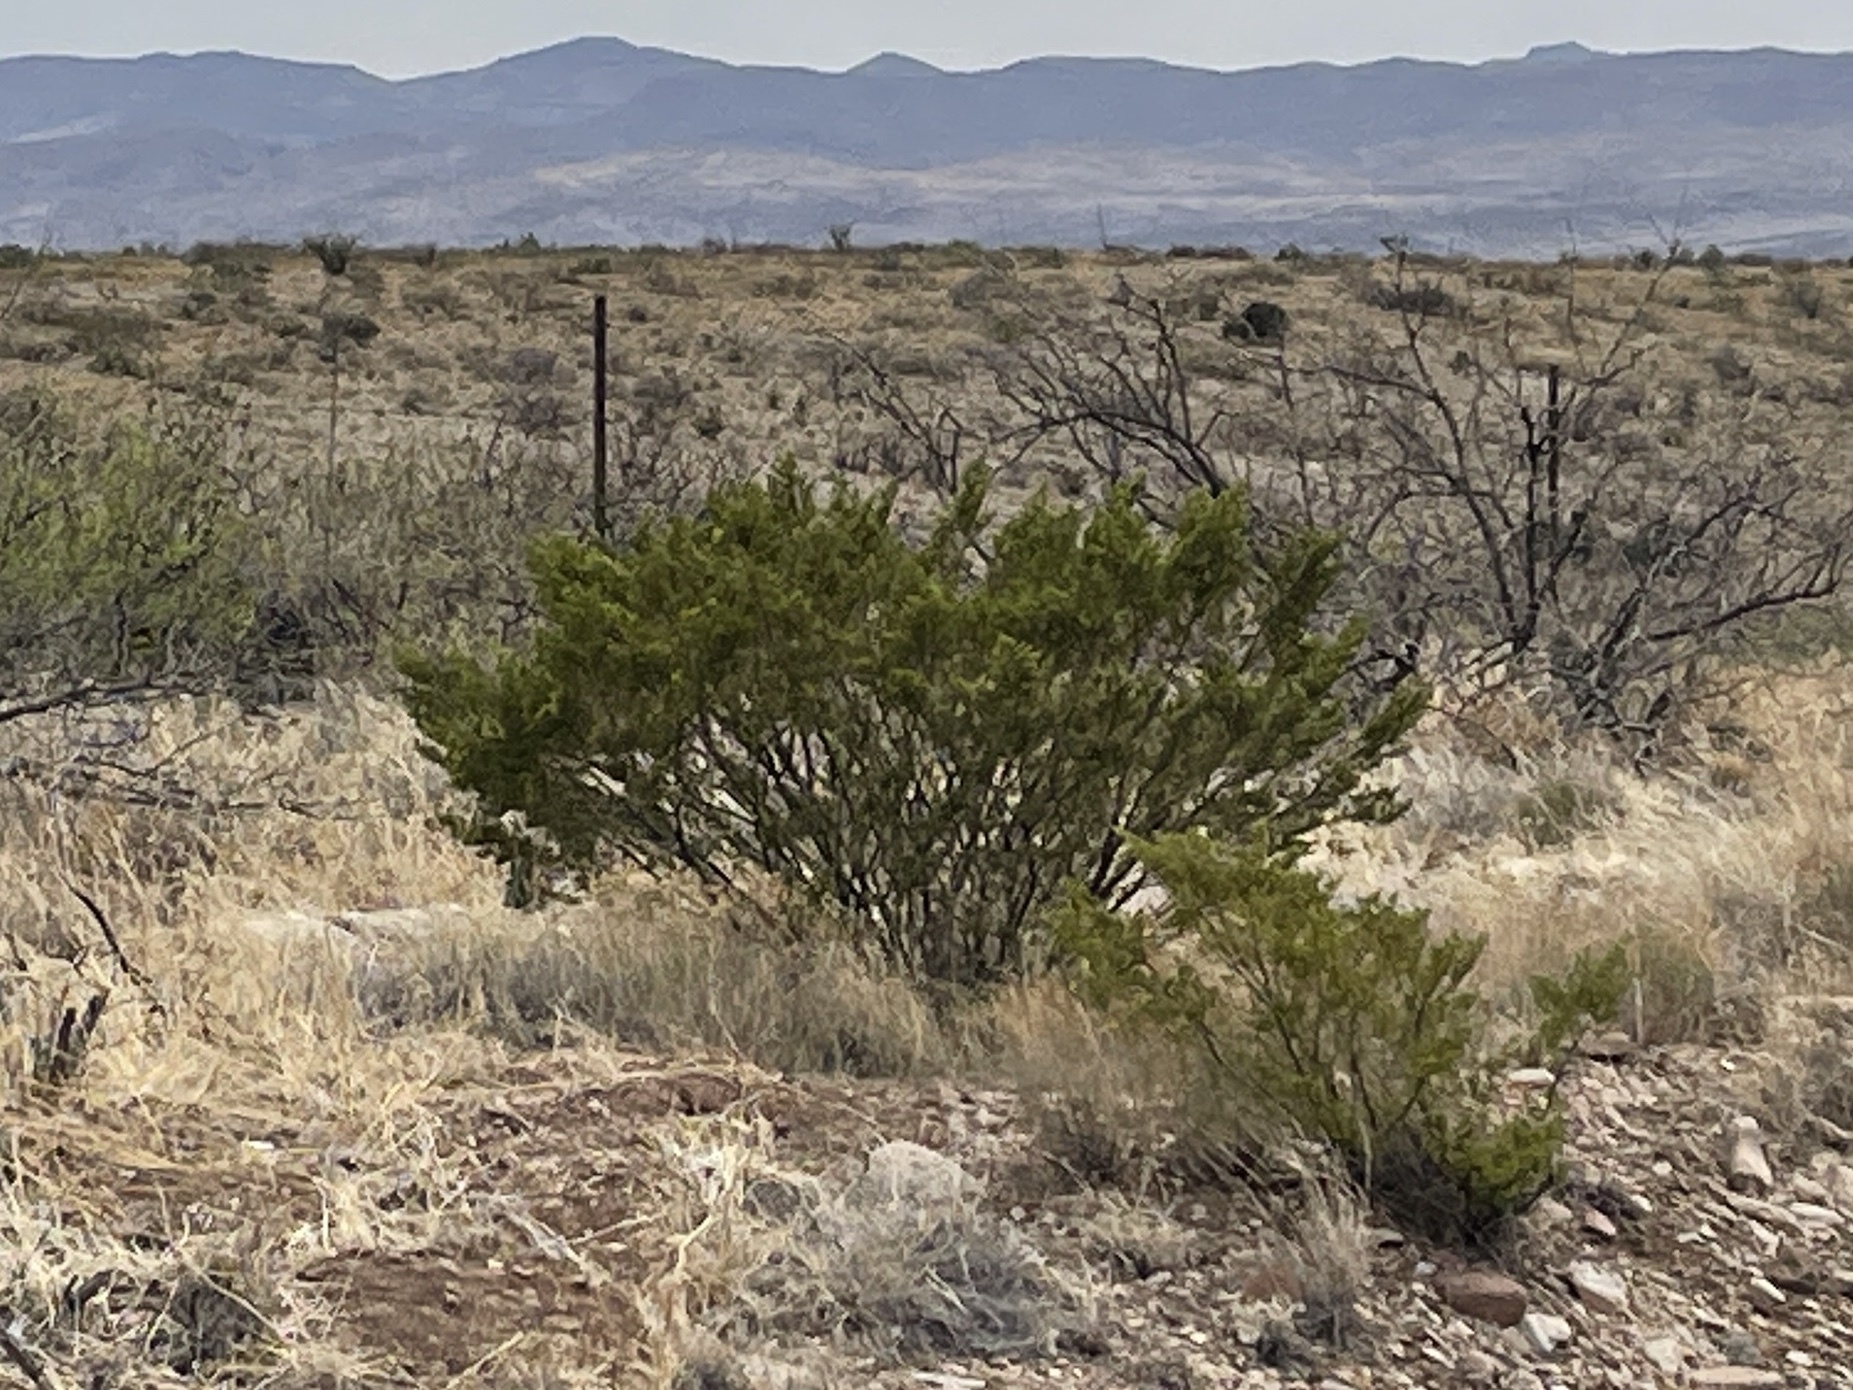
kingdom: Plantae
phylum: Tracheophyta
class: Magnoliopsida
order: Zygophyllales
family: Zygophyllaceae
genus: Larrea
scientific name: Larrea tridentata
